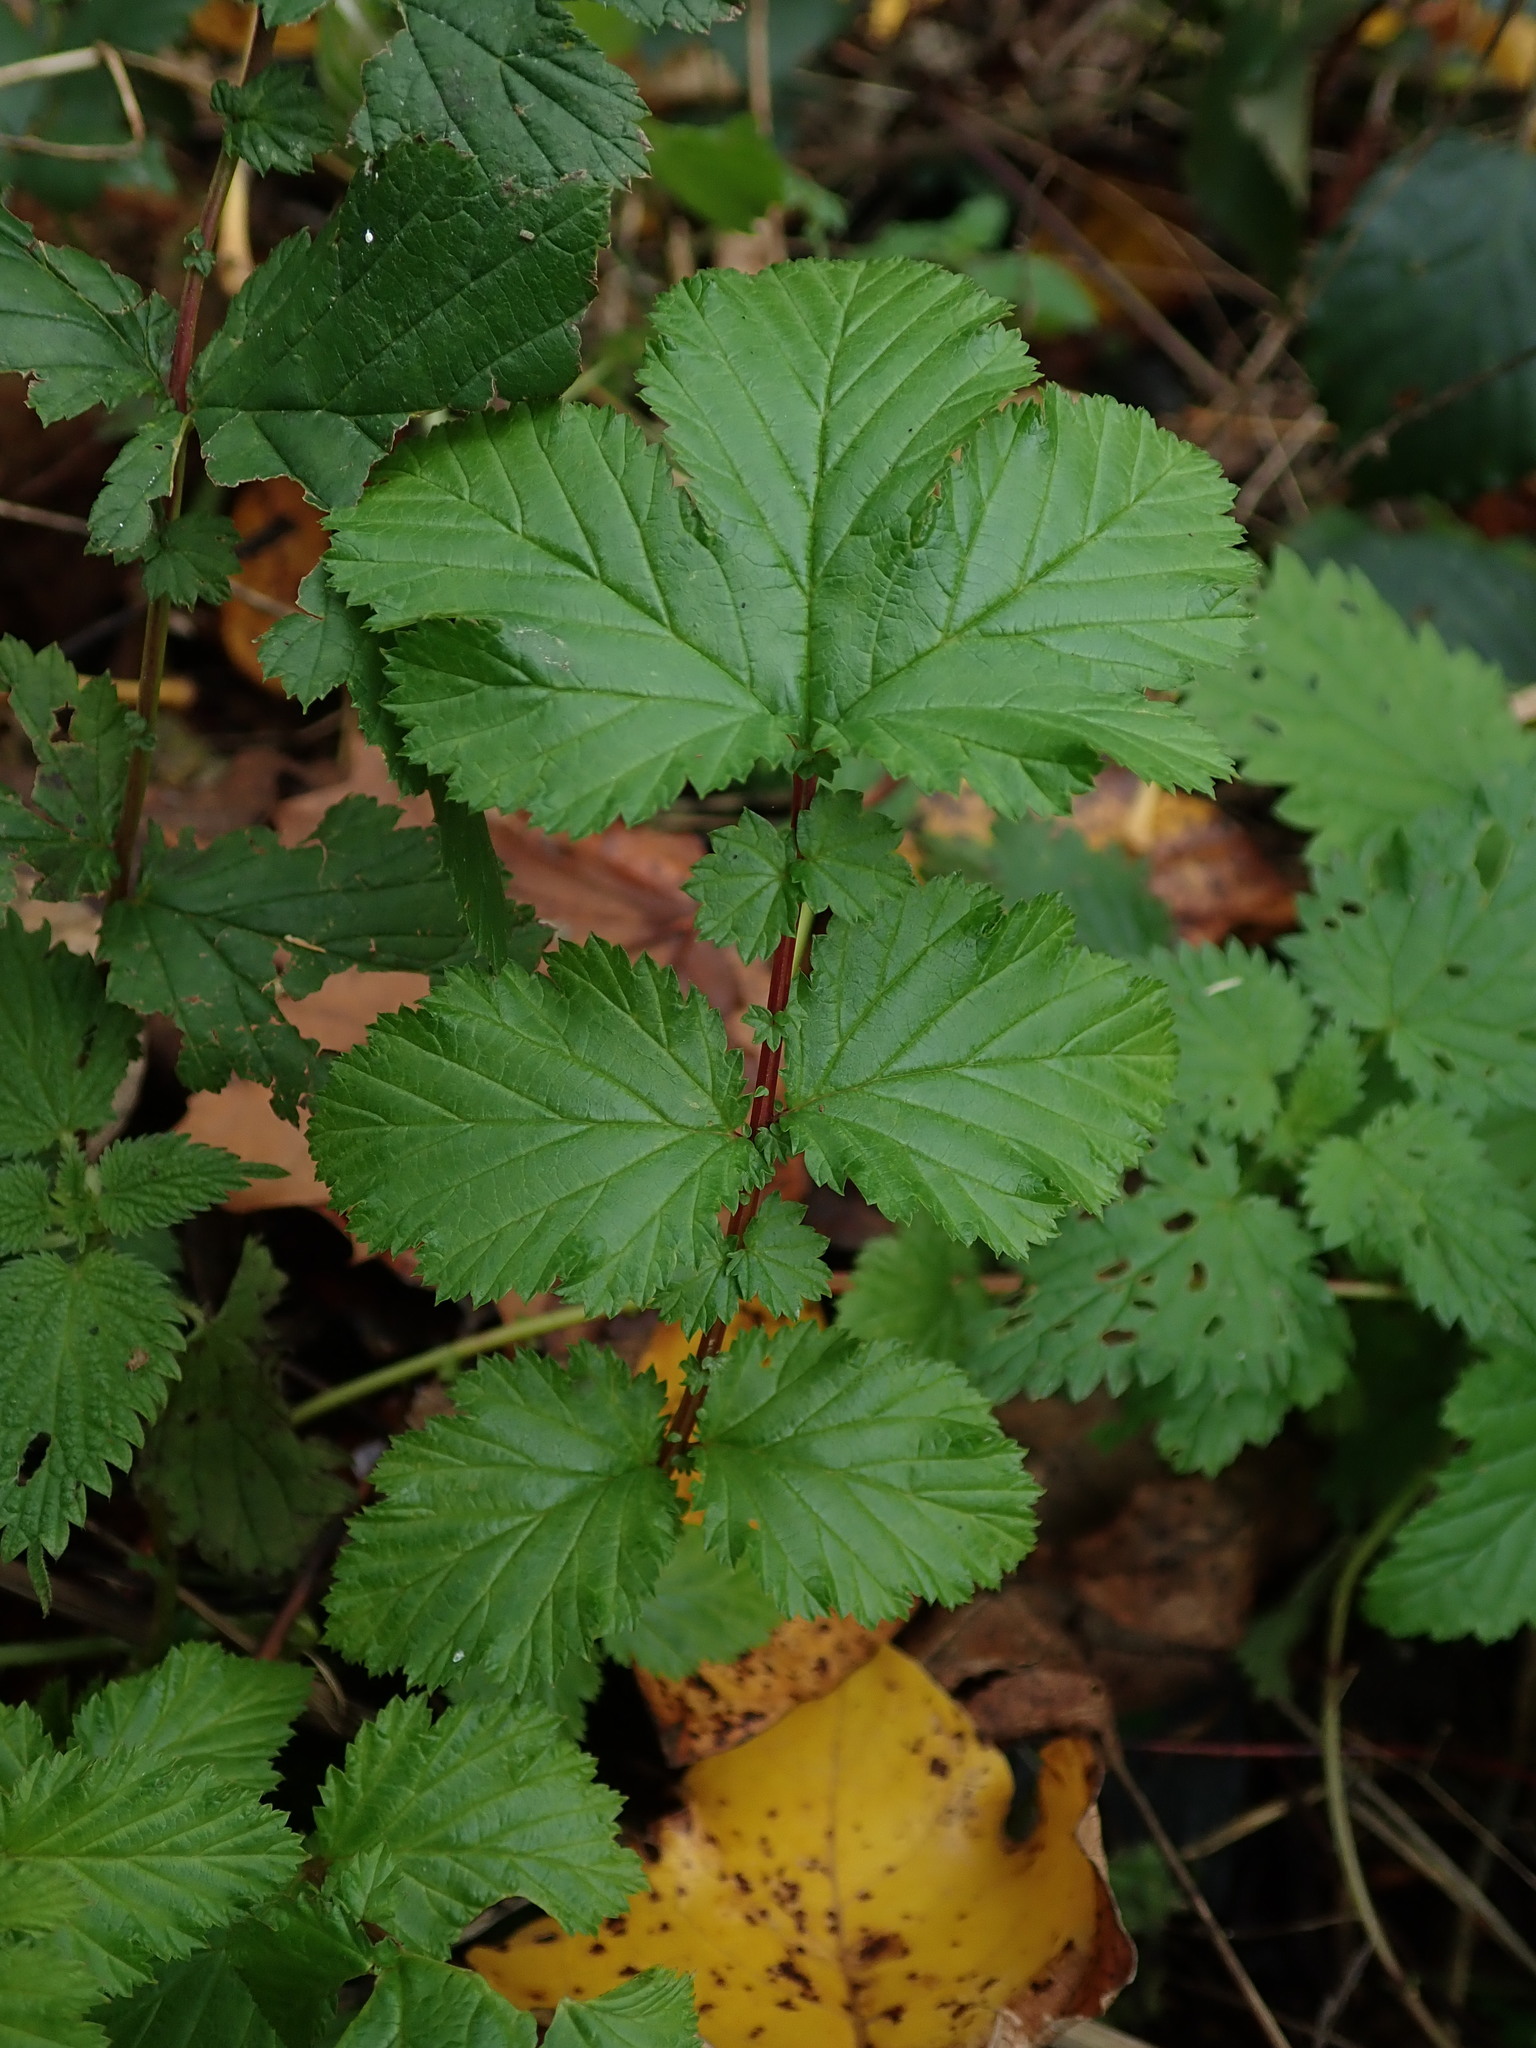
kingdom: Plantae
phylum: Tracheophyta
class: Magnoliopsida
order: Rosales
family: Rosaceae
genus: Filipendula
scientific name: Filipendula ulmaria
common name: Meadowsweet
